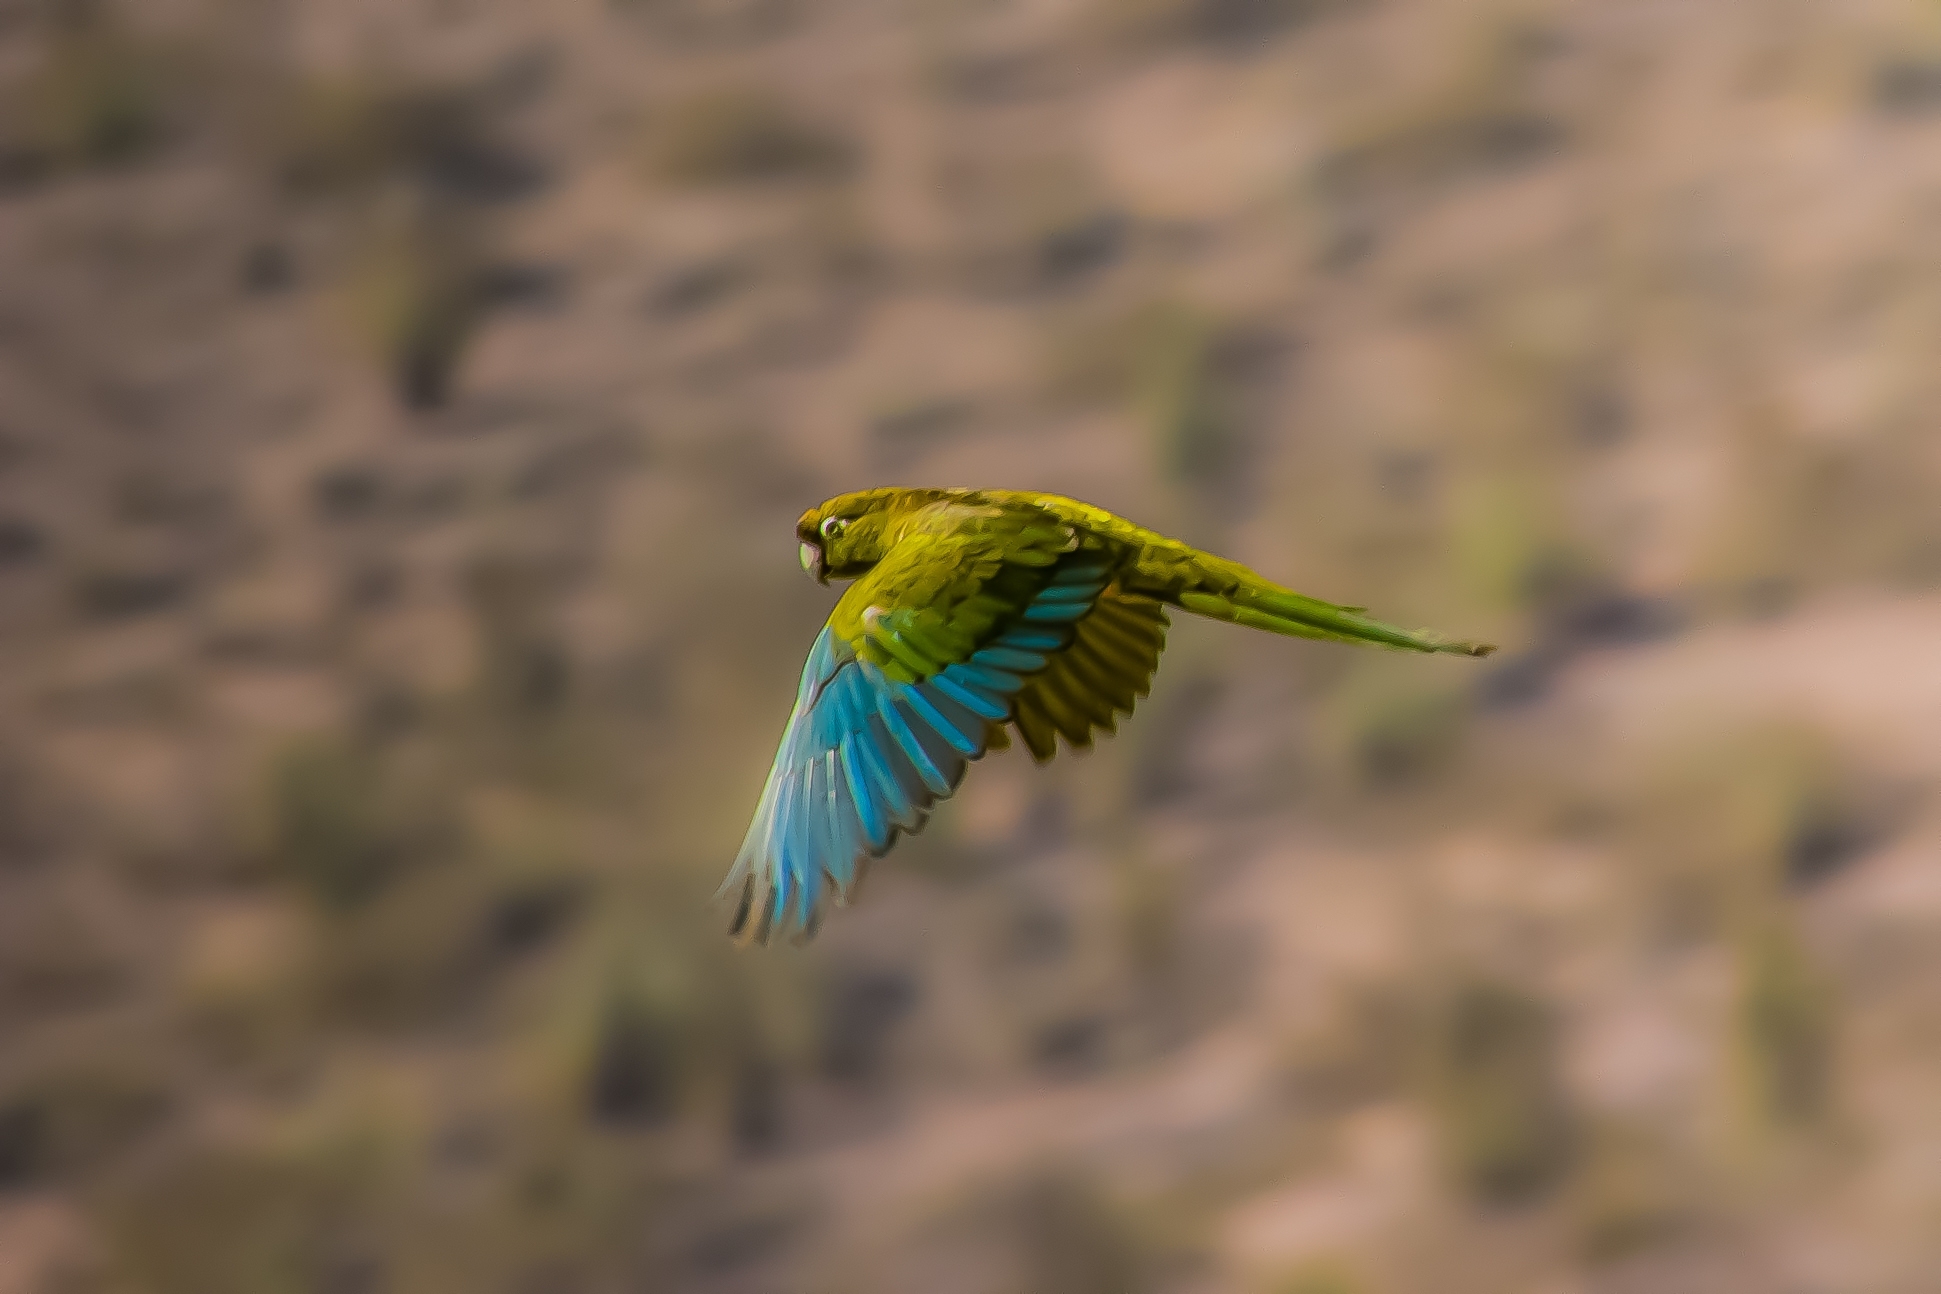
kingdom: Animalia
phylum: Chordata
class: Aves
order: Psittaciformes
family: Psittacidae
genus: Cyanoliseus
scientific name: Cyanoliseus patagonus
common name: Burrowing parrot
